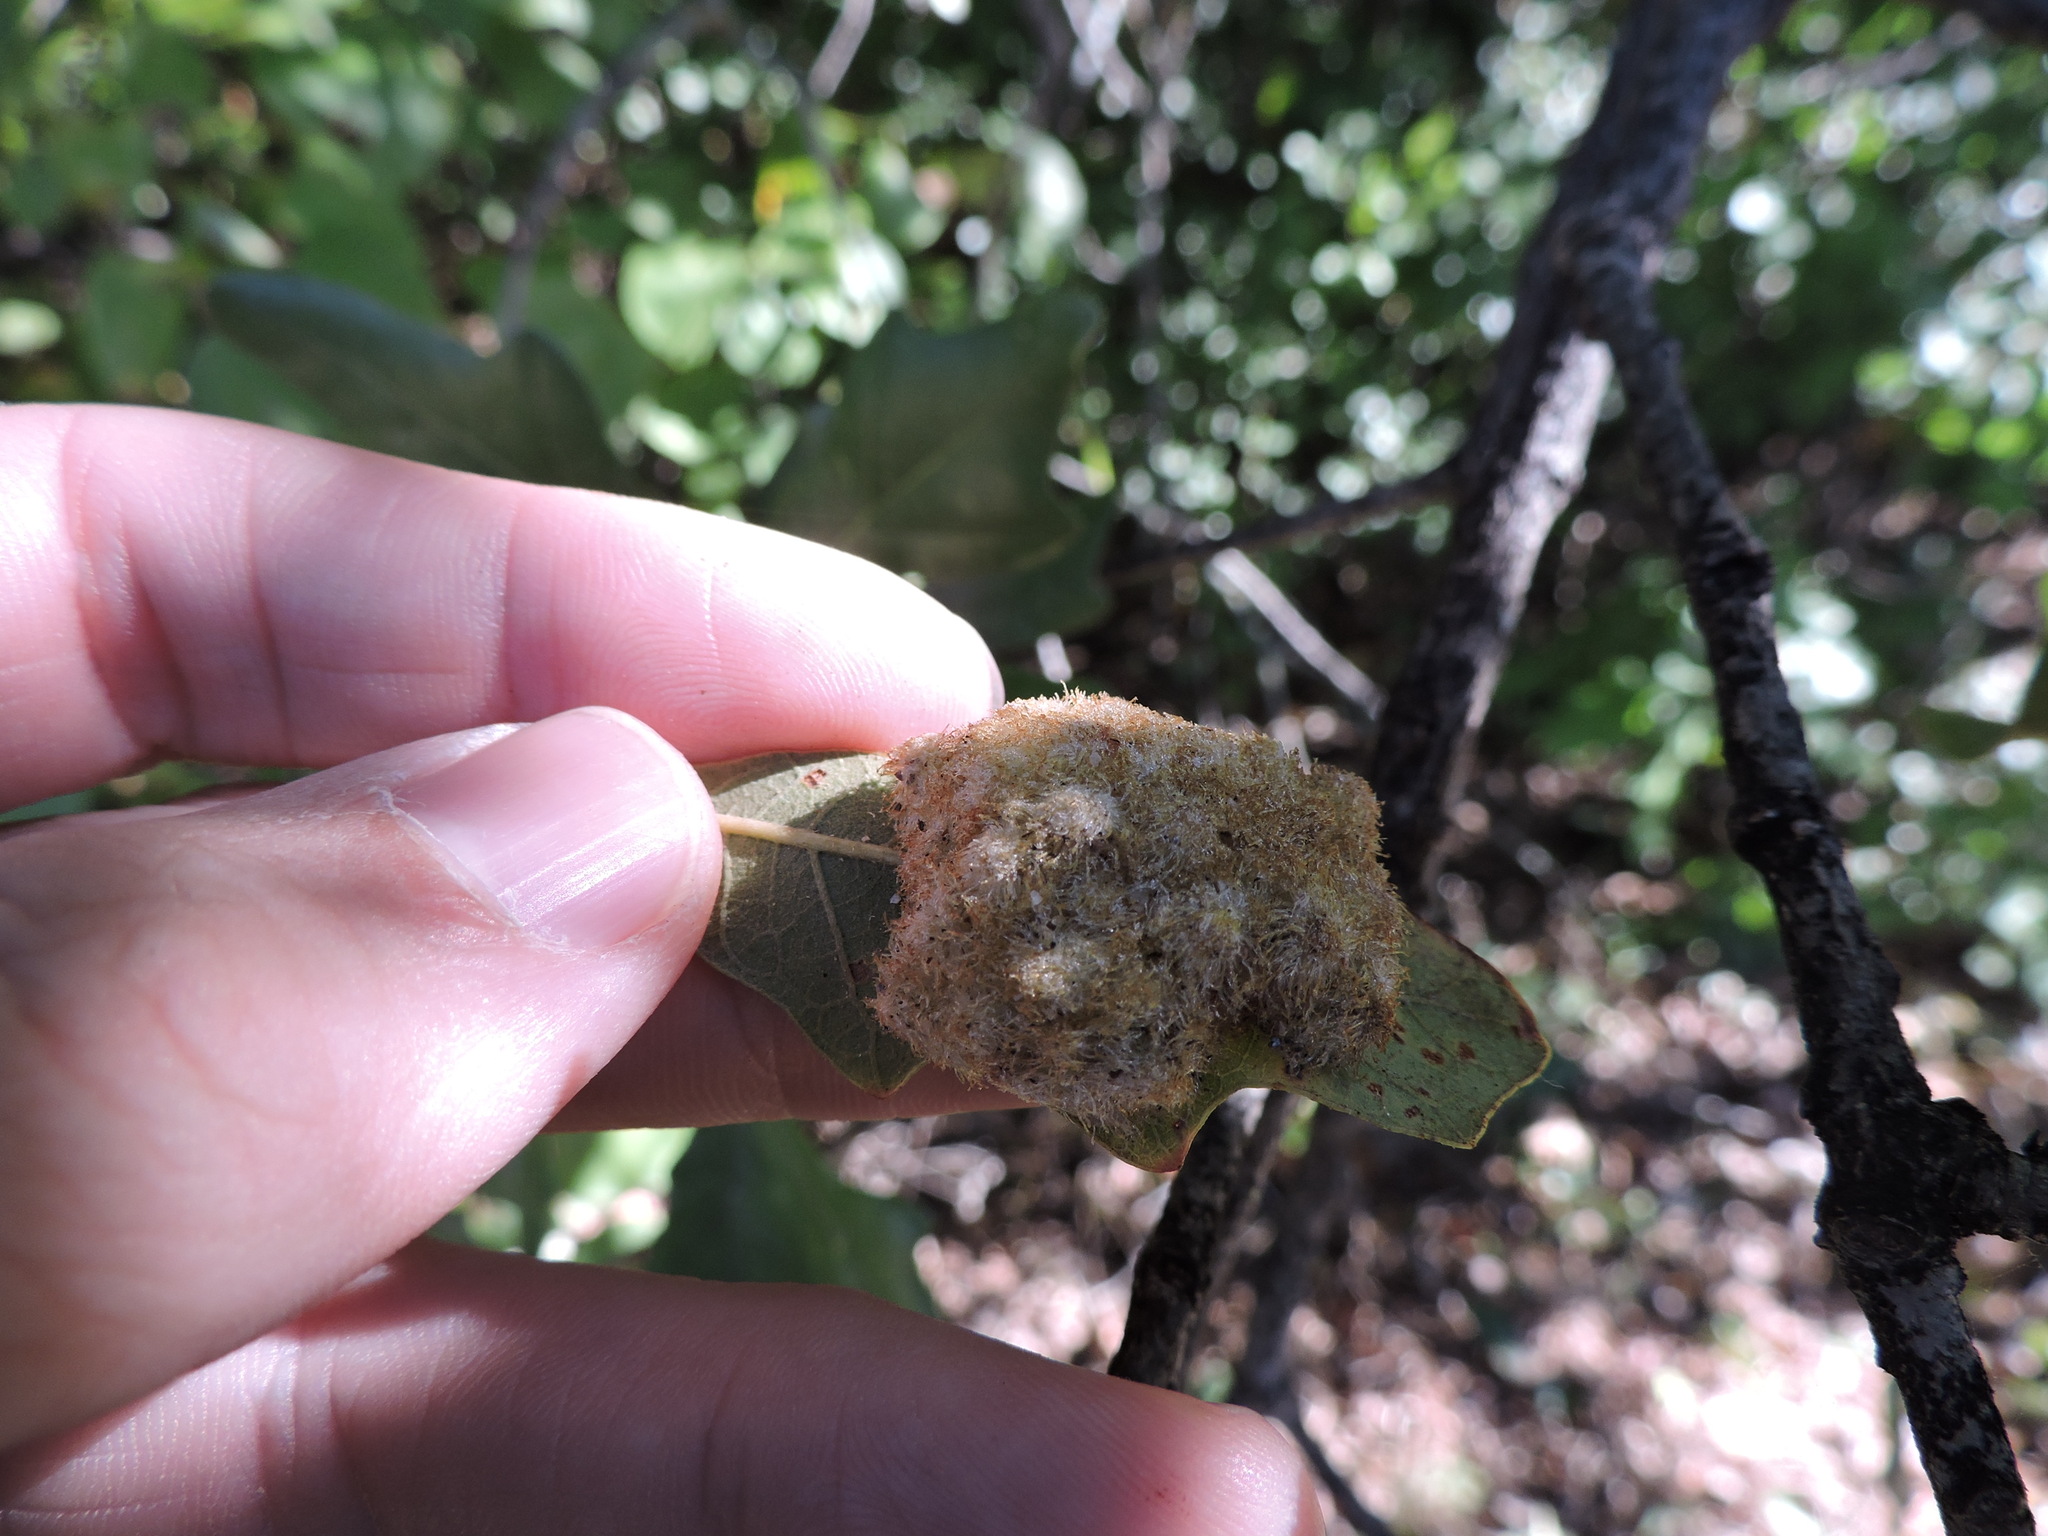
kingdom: Animalia
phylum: Arthropoda
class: Insecta
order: Hymenoptera
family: Cynipidae
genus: Andricus
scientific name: Andricus
